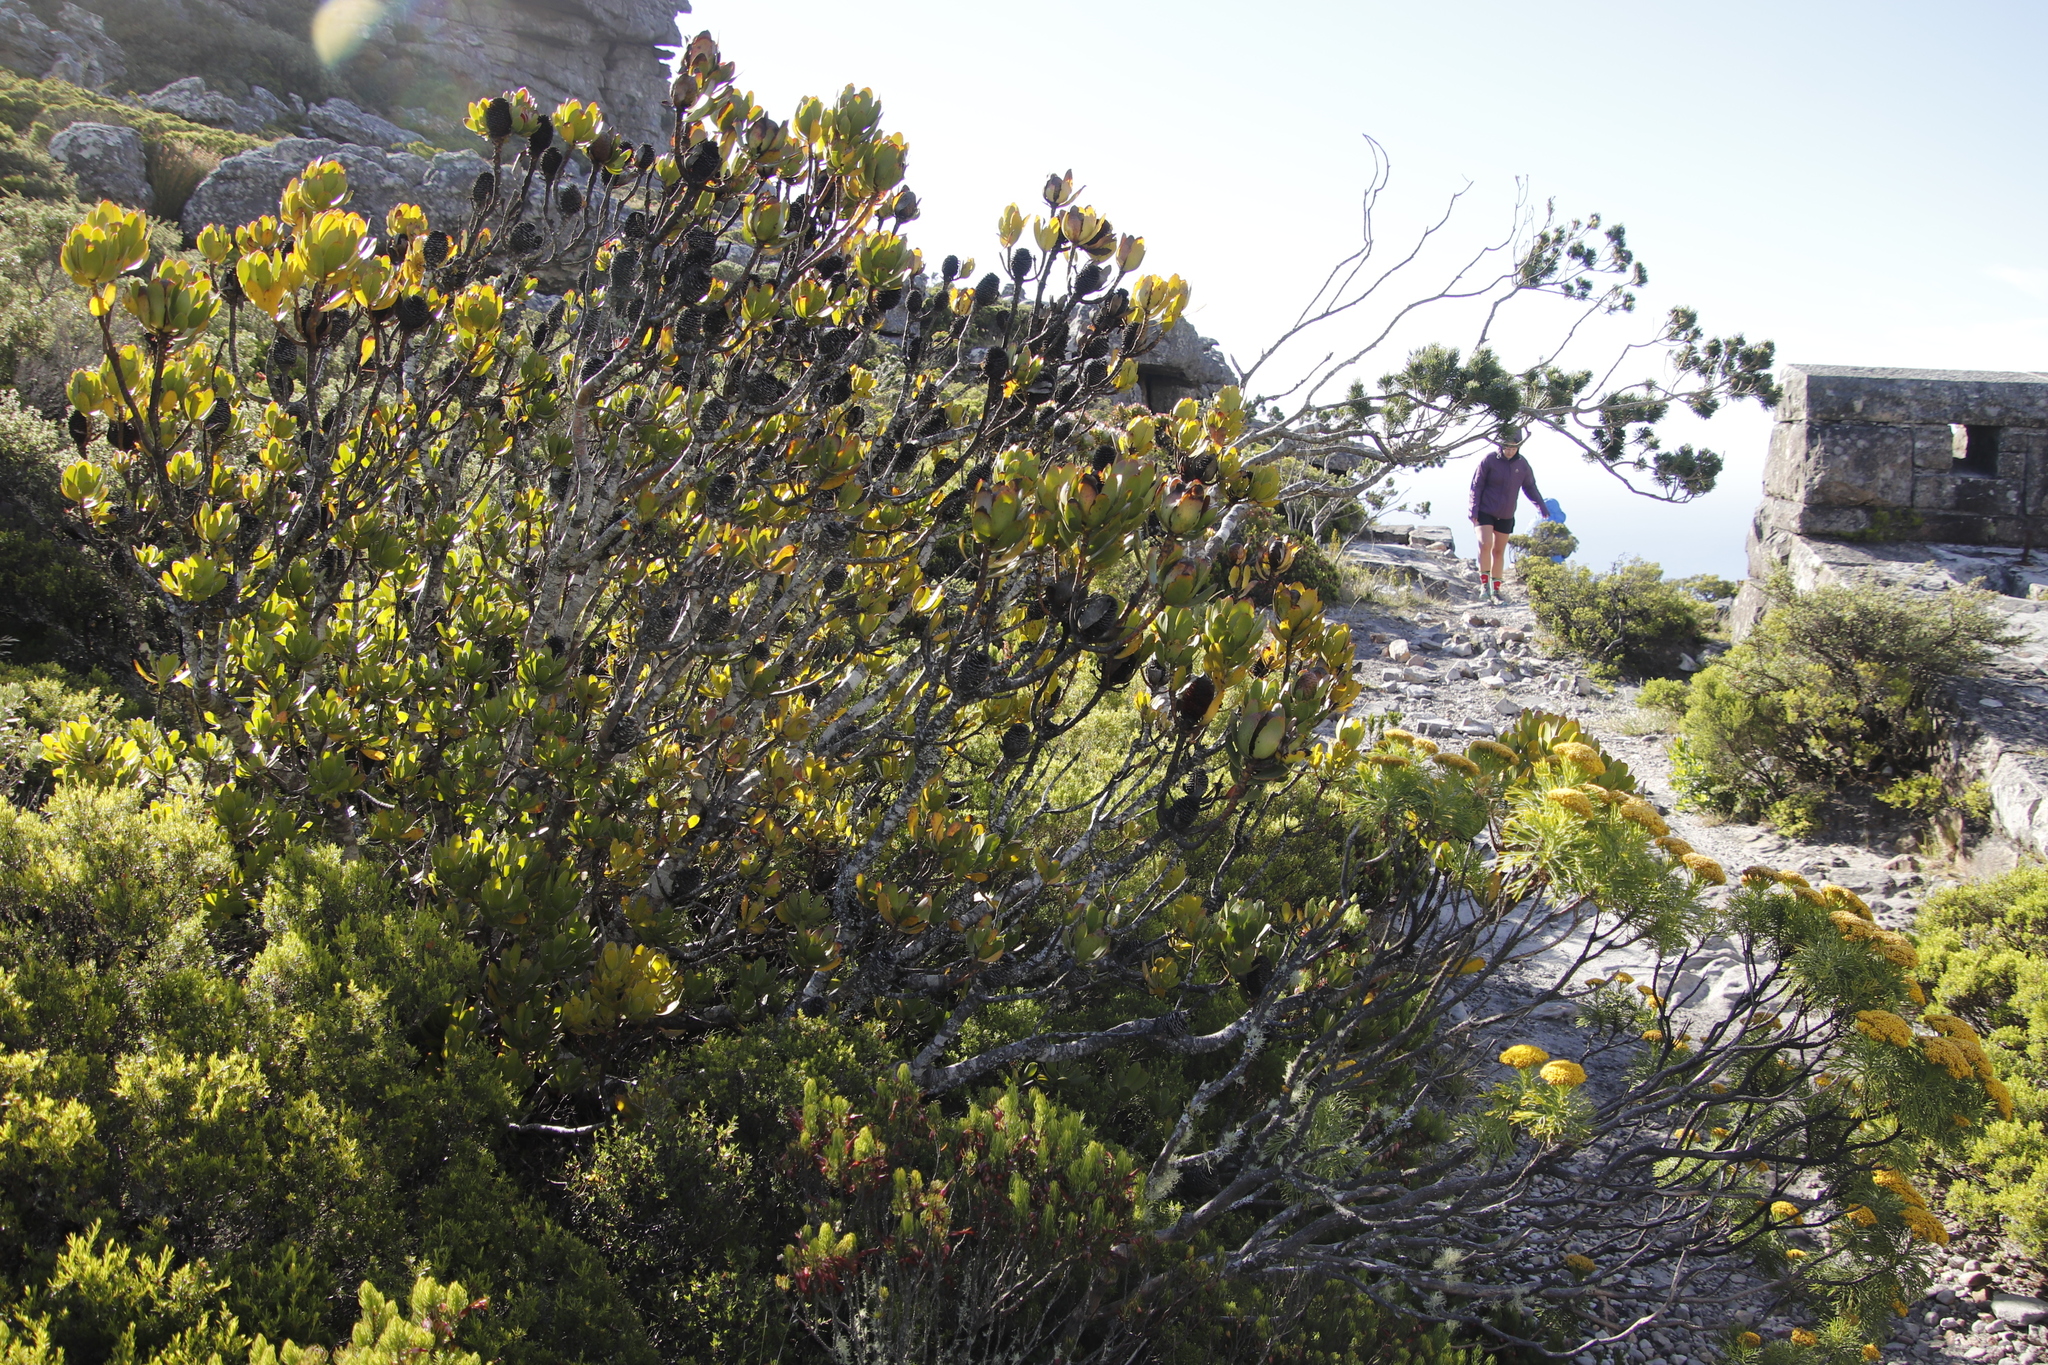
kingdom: Plantae
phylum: Tracheophyta
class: Magnoliopsida
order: Proteales
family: Proteaceae
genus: Leucadendron
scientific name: Leucadendron strobilinum
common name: Mountain rose
